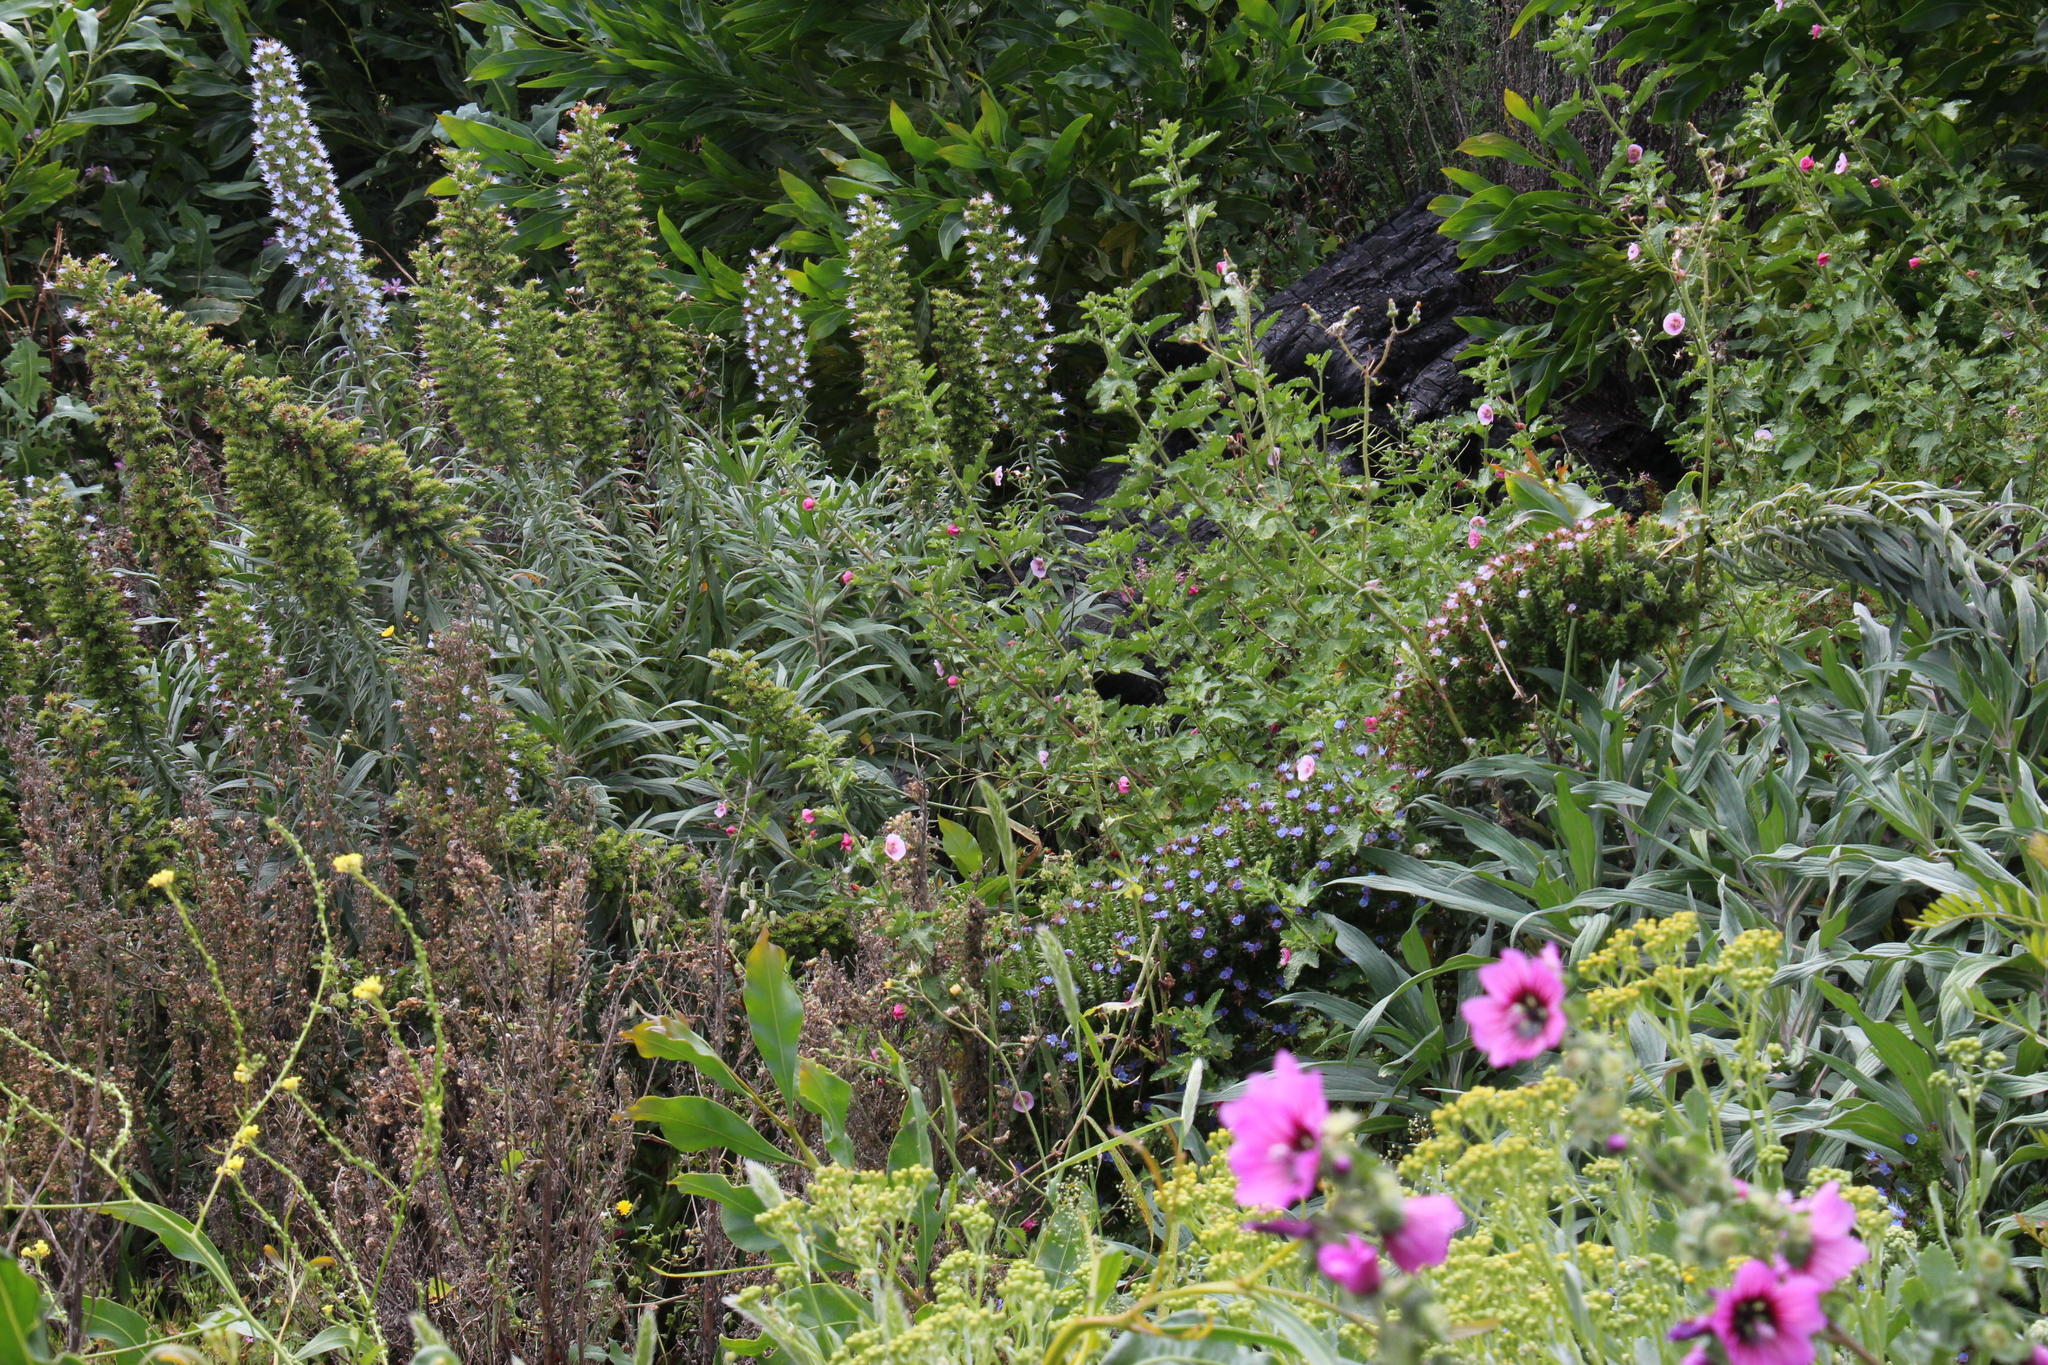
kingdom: Plantae
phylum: Tracheophyta
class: Magnoliopsida
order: Boraginales
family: Boraginaceae
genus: Echium
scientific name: Echium candicans
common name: Pride of madeira
